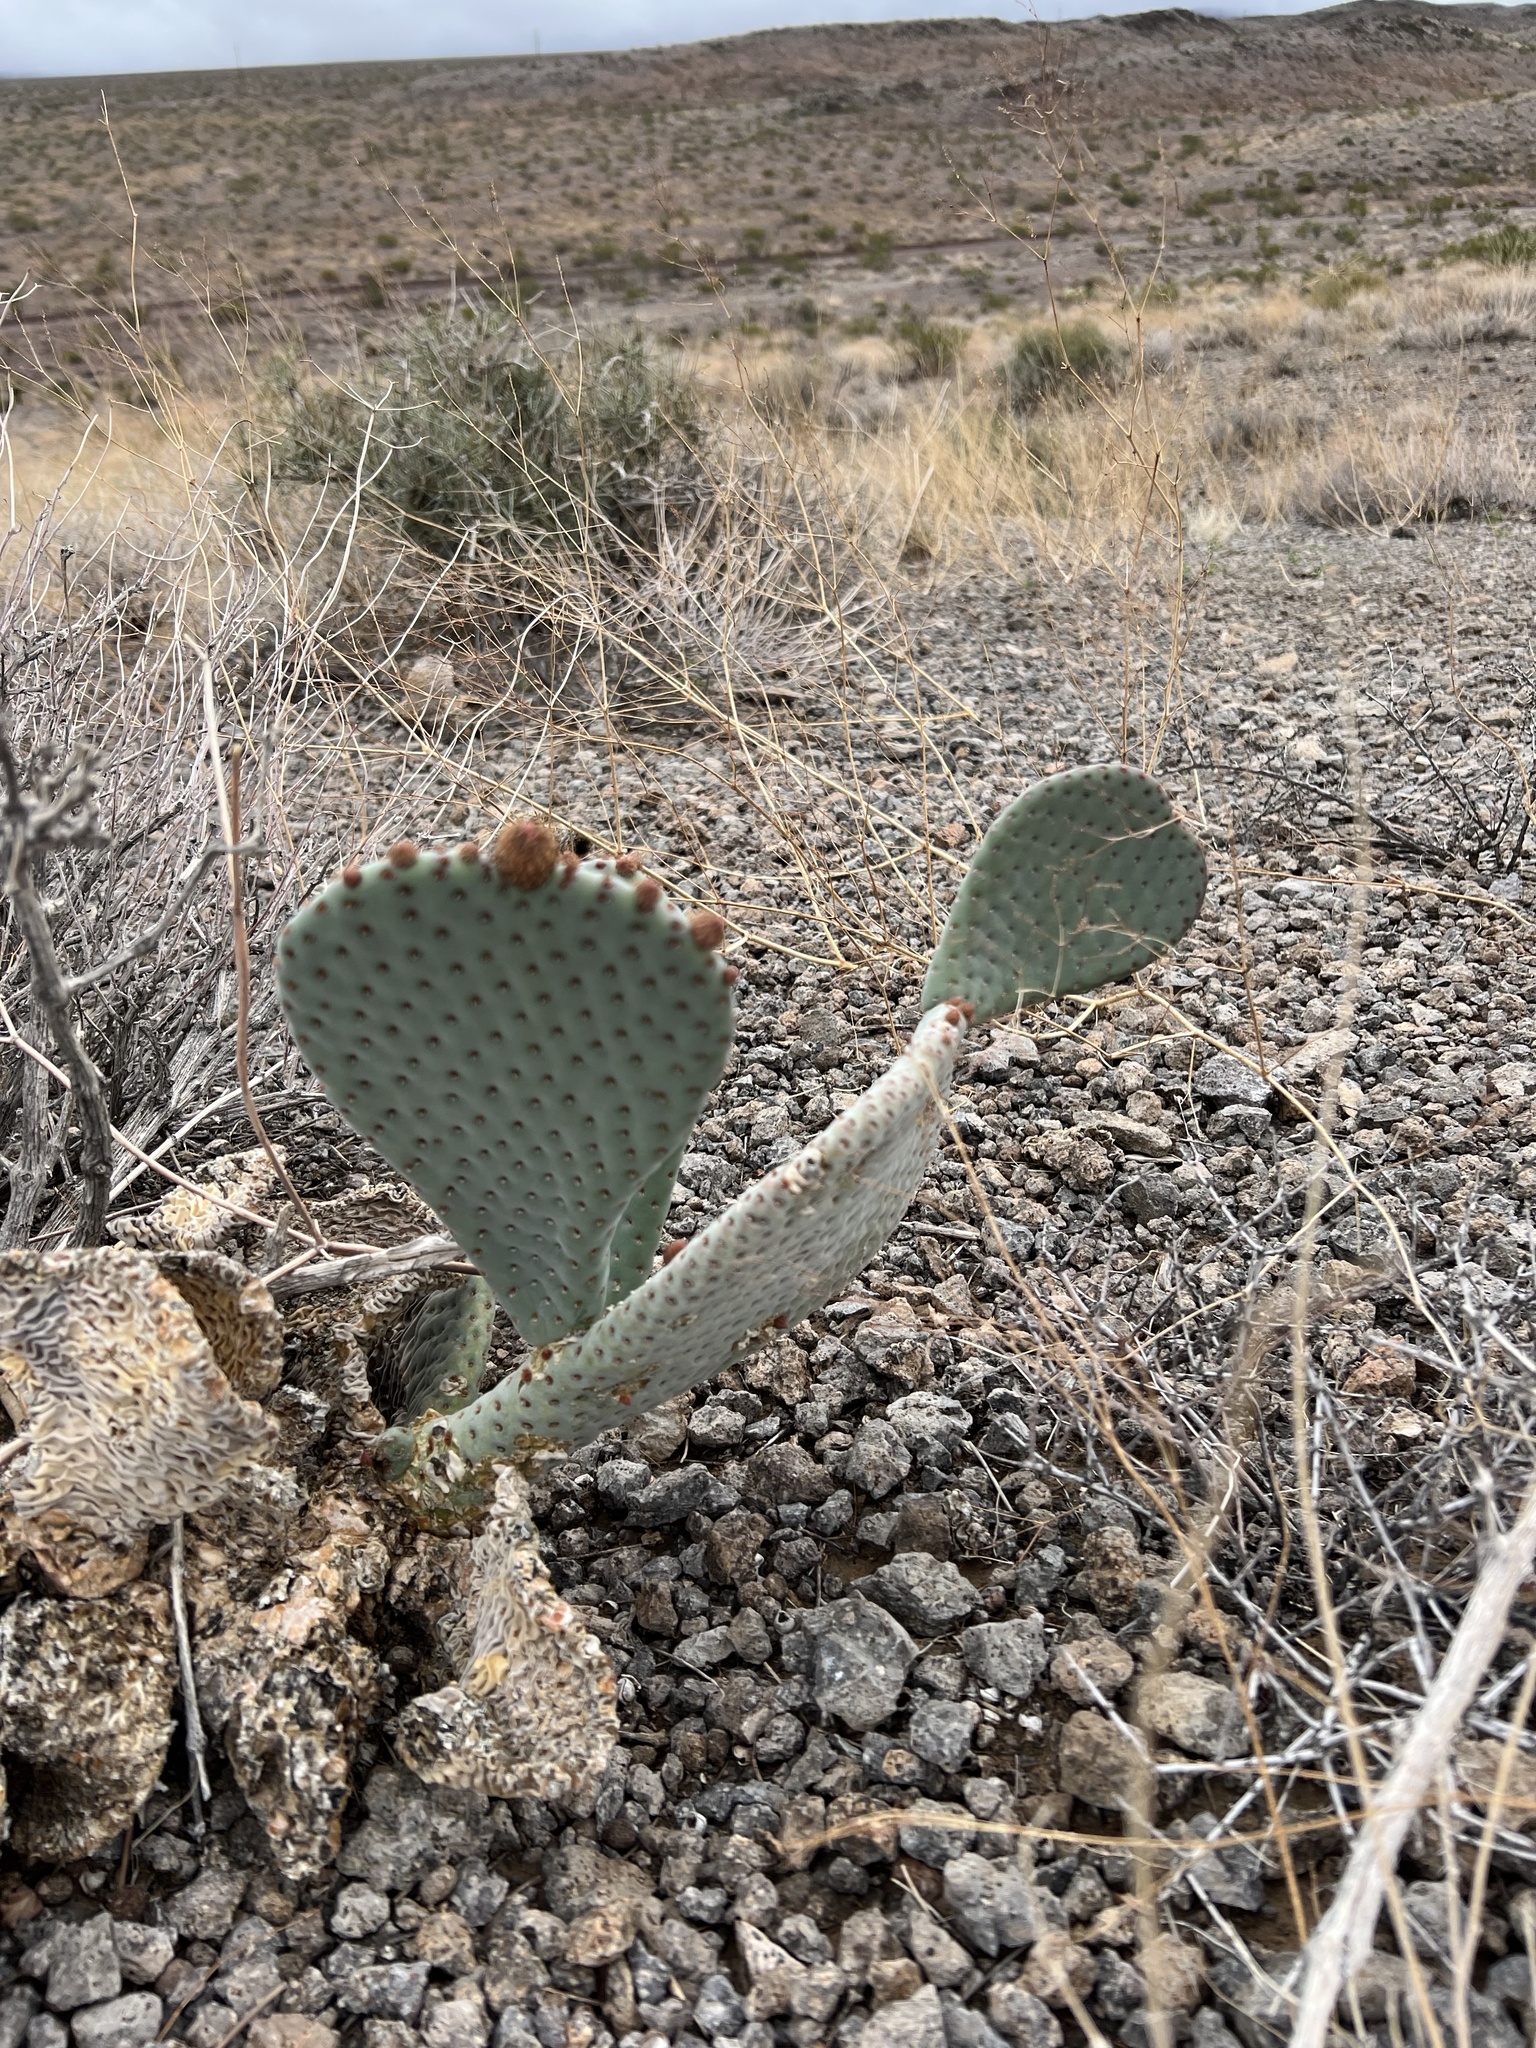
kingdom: Plantae
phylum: Tracheophyta
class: Magnoliopsida
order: Caryophyllales
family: Cactaceae
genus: Opuntia
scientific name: Opuntia basilaris
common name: Beavertail prickly-pear
